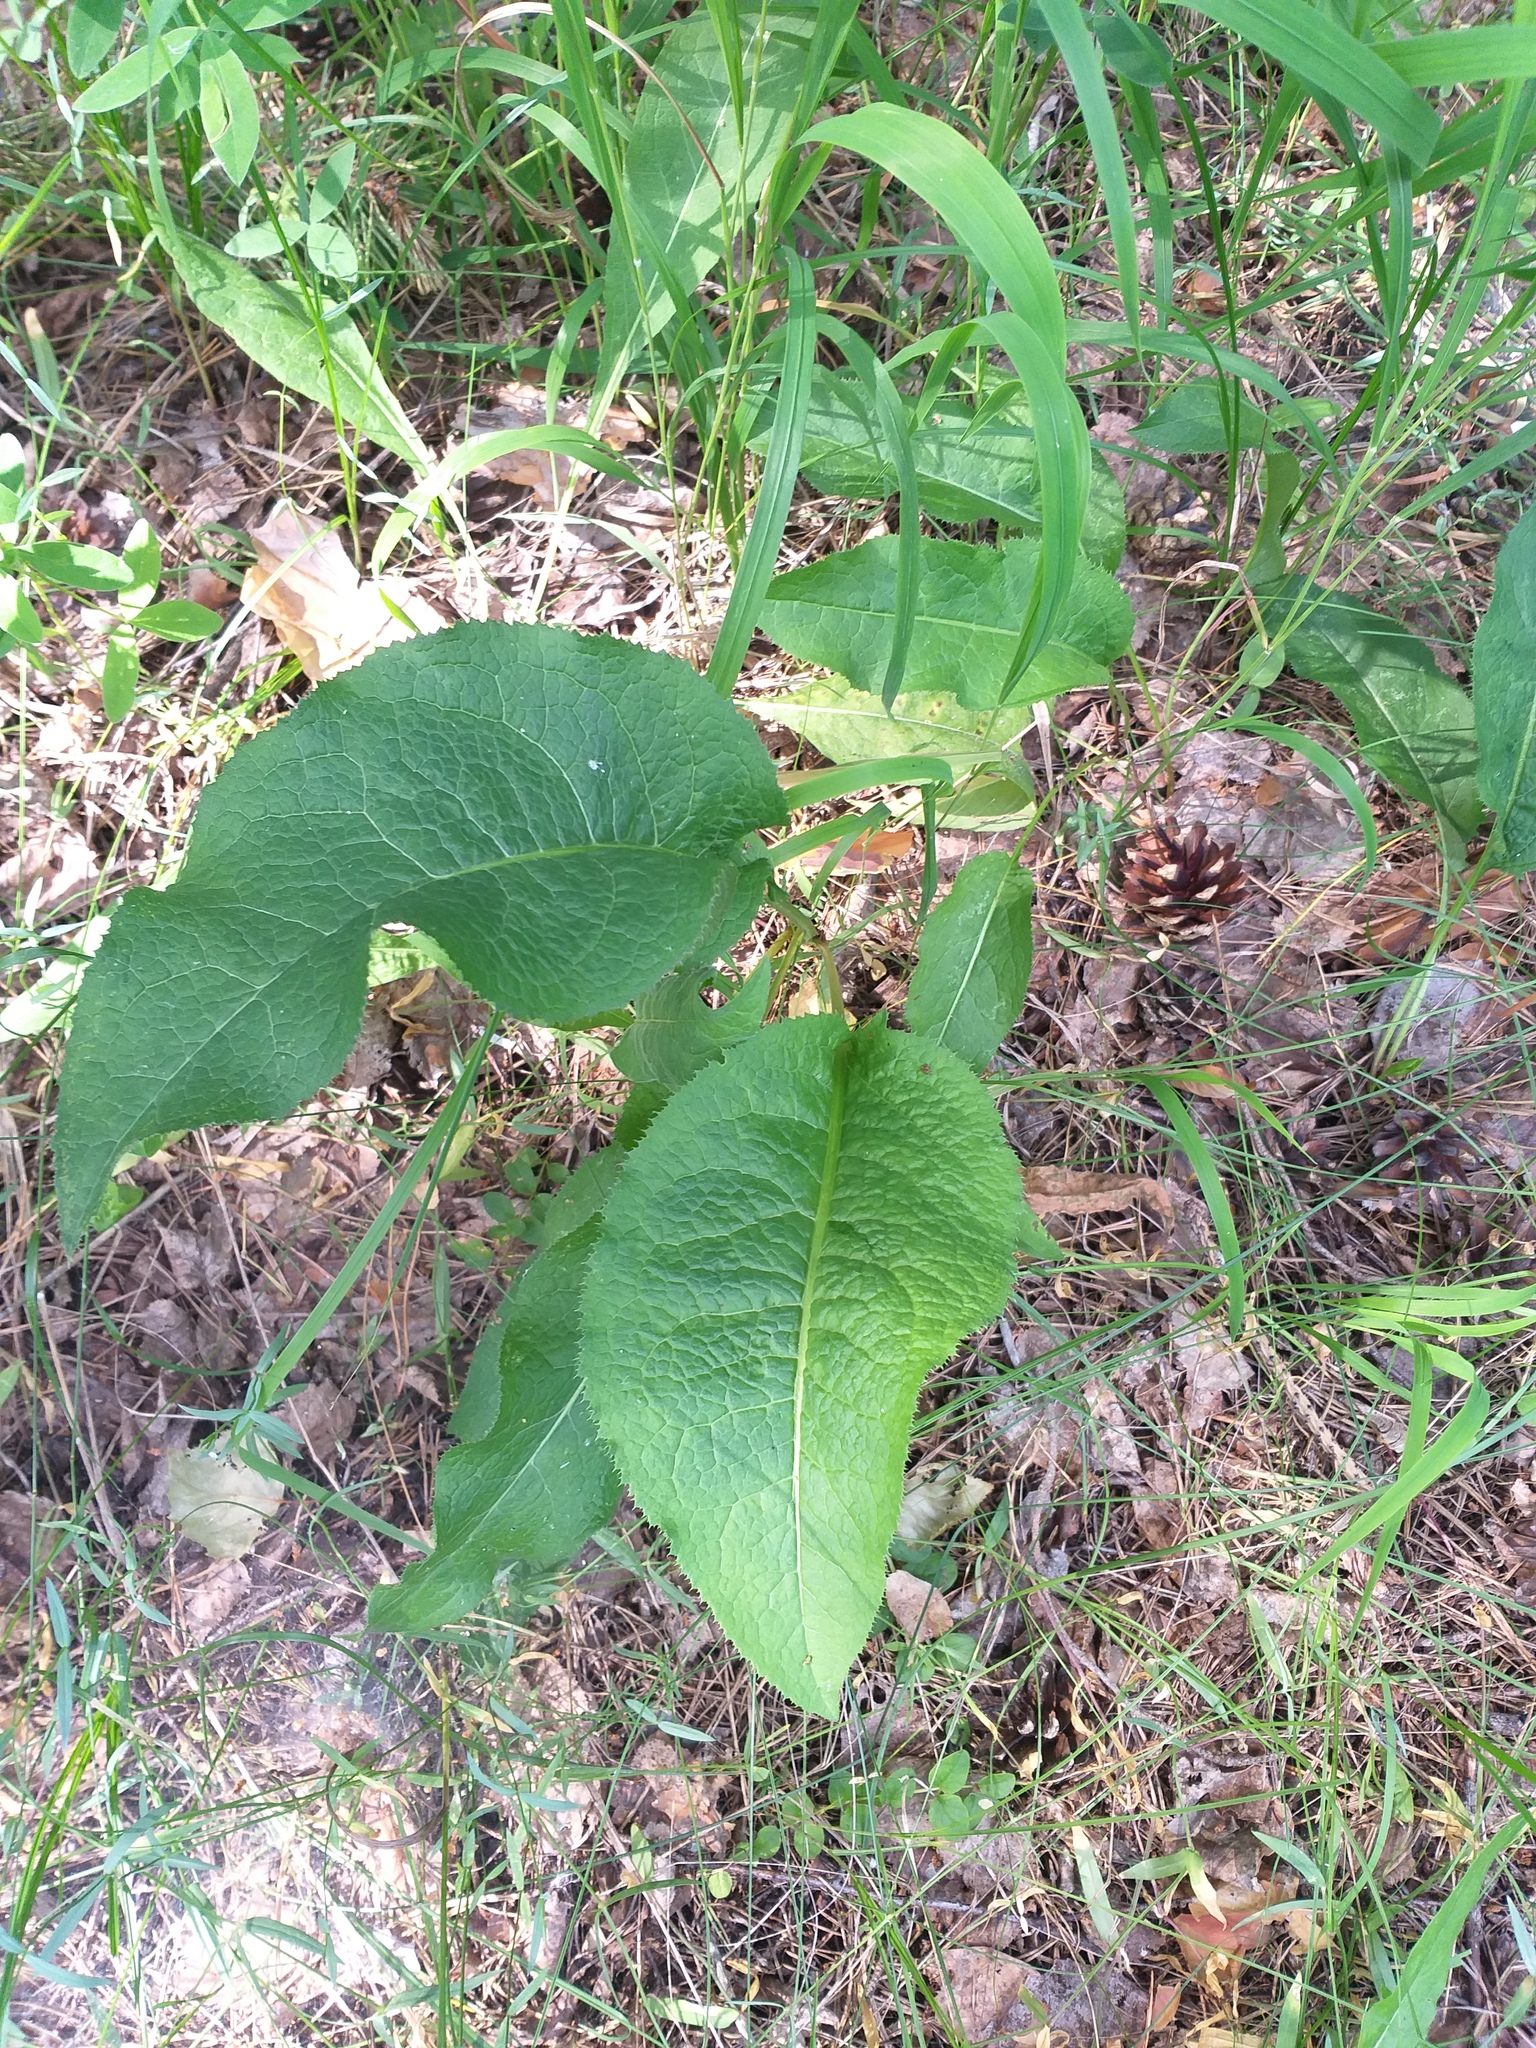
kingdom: Plantae
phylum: Tracheophyta
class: Magnoliopsida
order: Asterales
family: Asteraceae
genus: Serratula
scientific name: Serratula tinctoria
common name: Saw-wort
